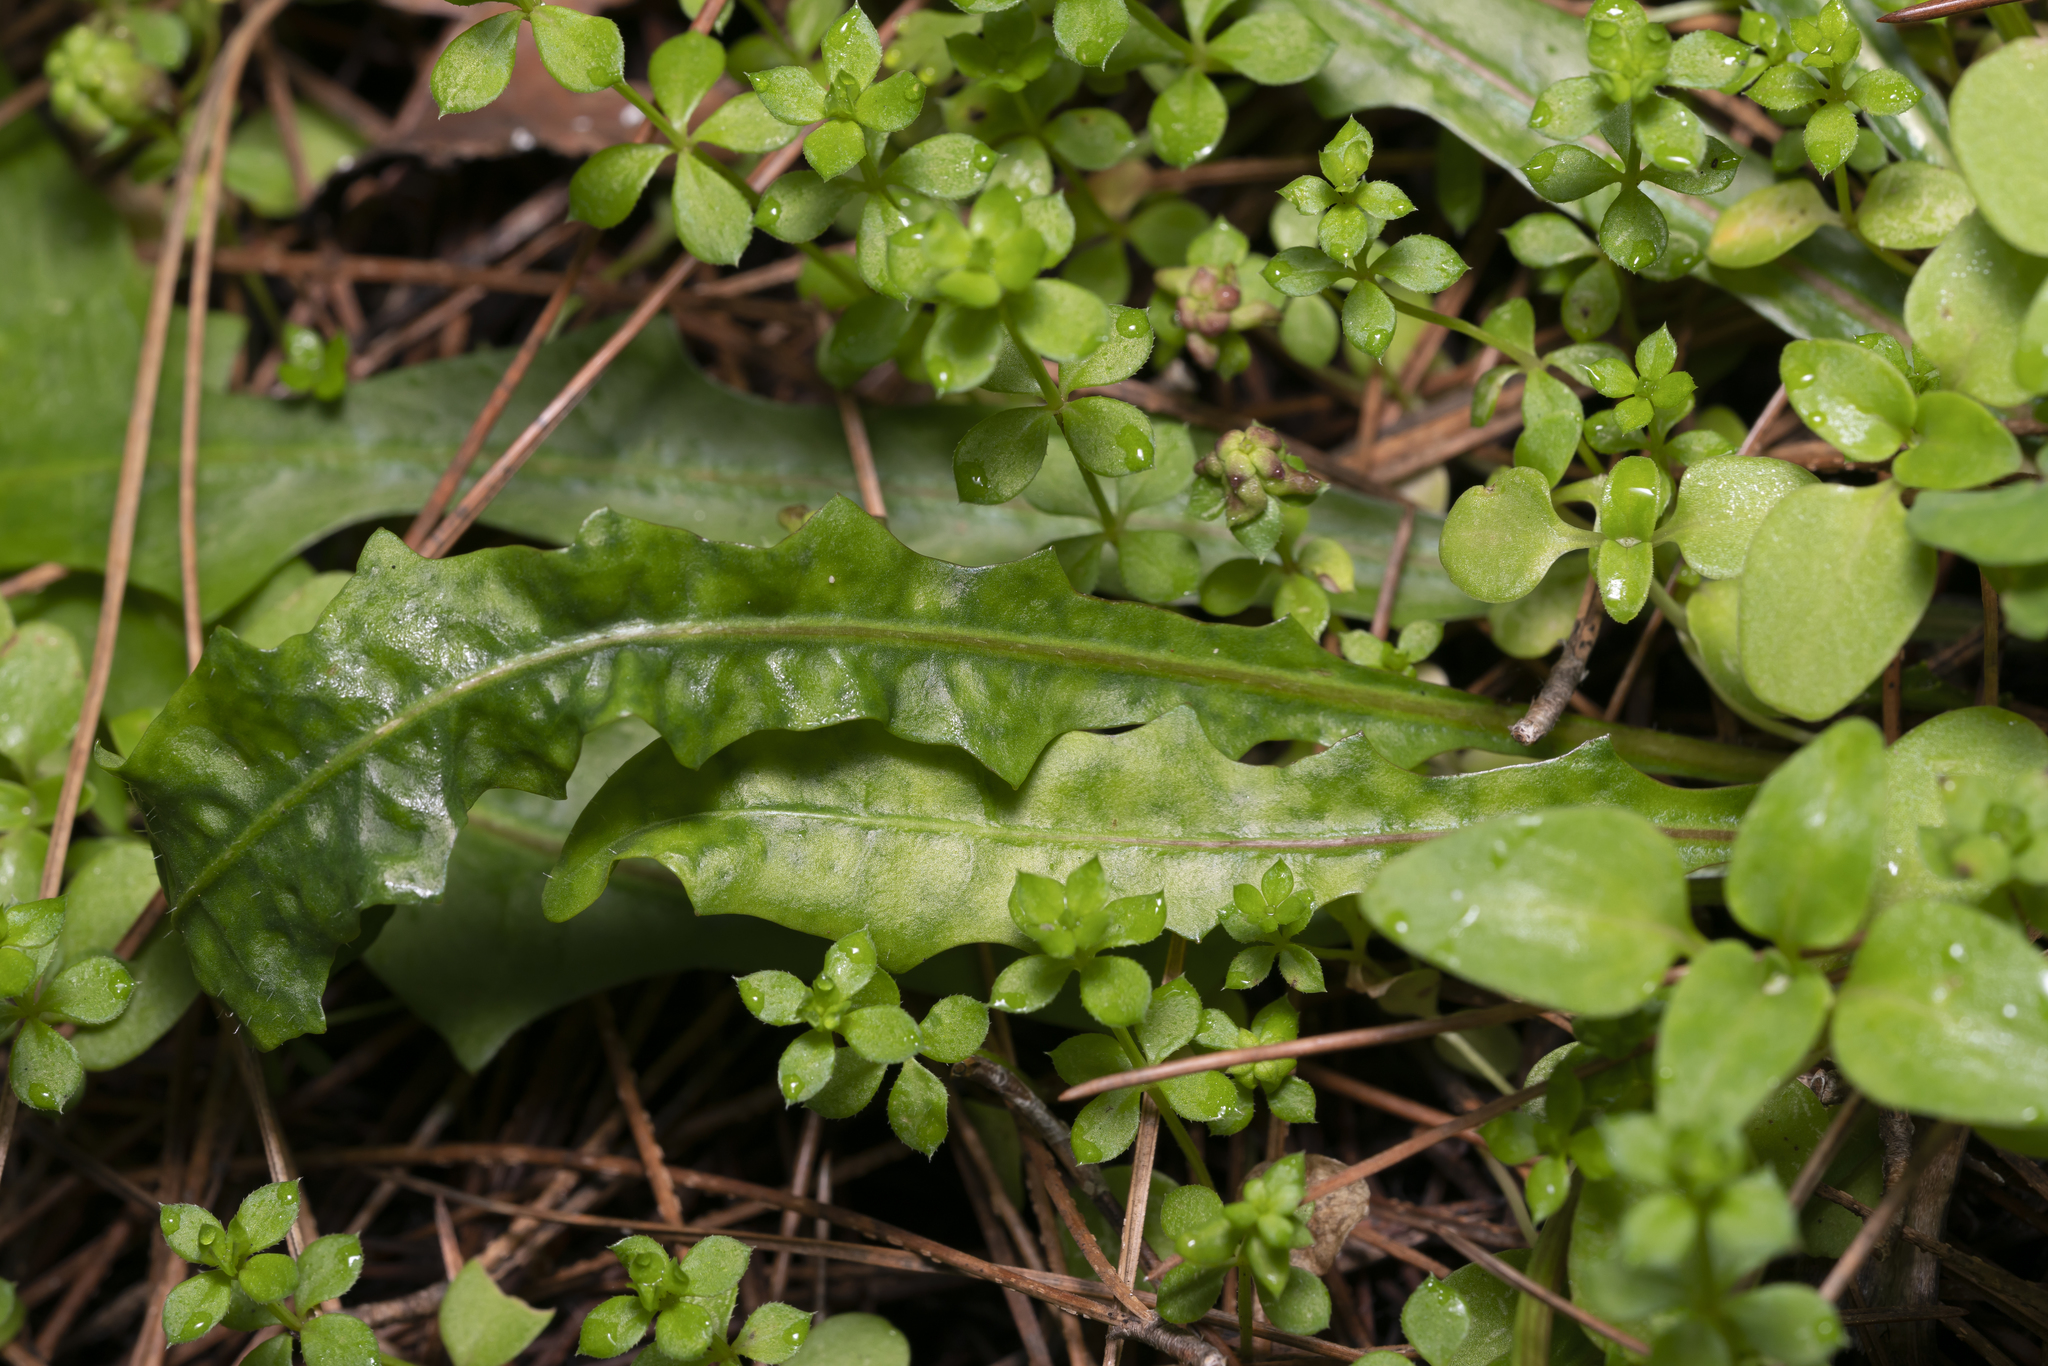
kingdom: Plantae
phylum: Tracheophyta
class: Magnoliopsida
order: Asterales
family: Asteraceae
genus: Leontodon
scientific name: Leontodon tuberosus
